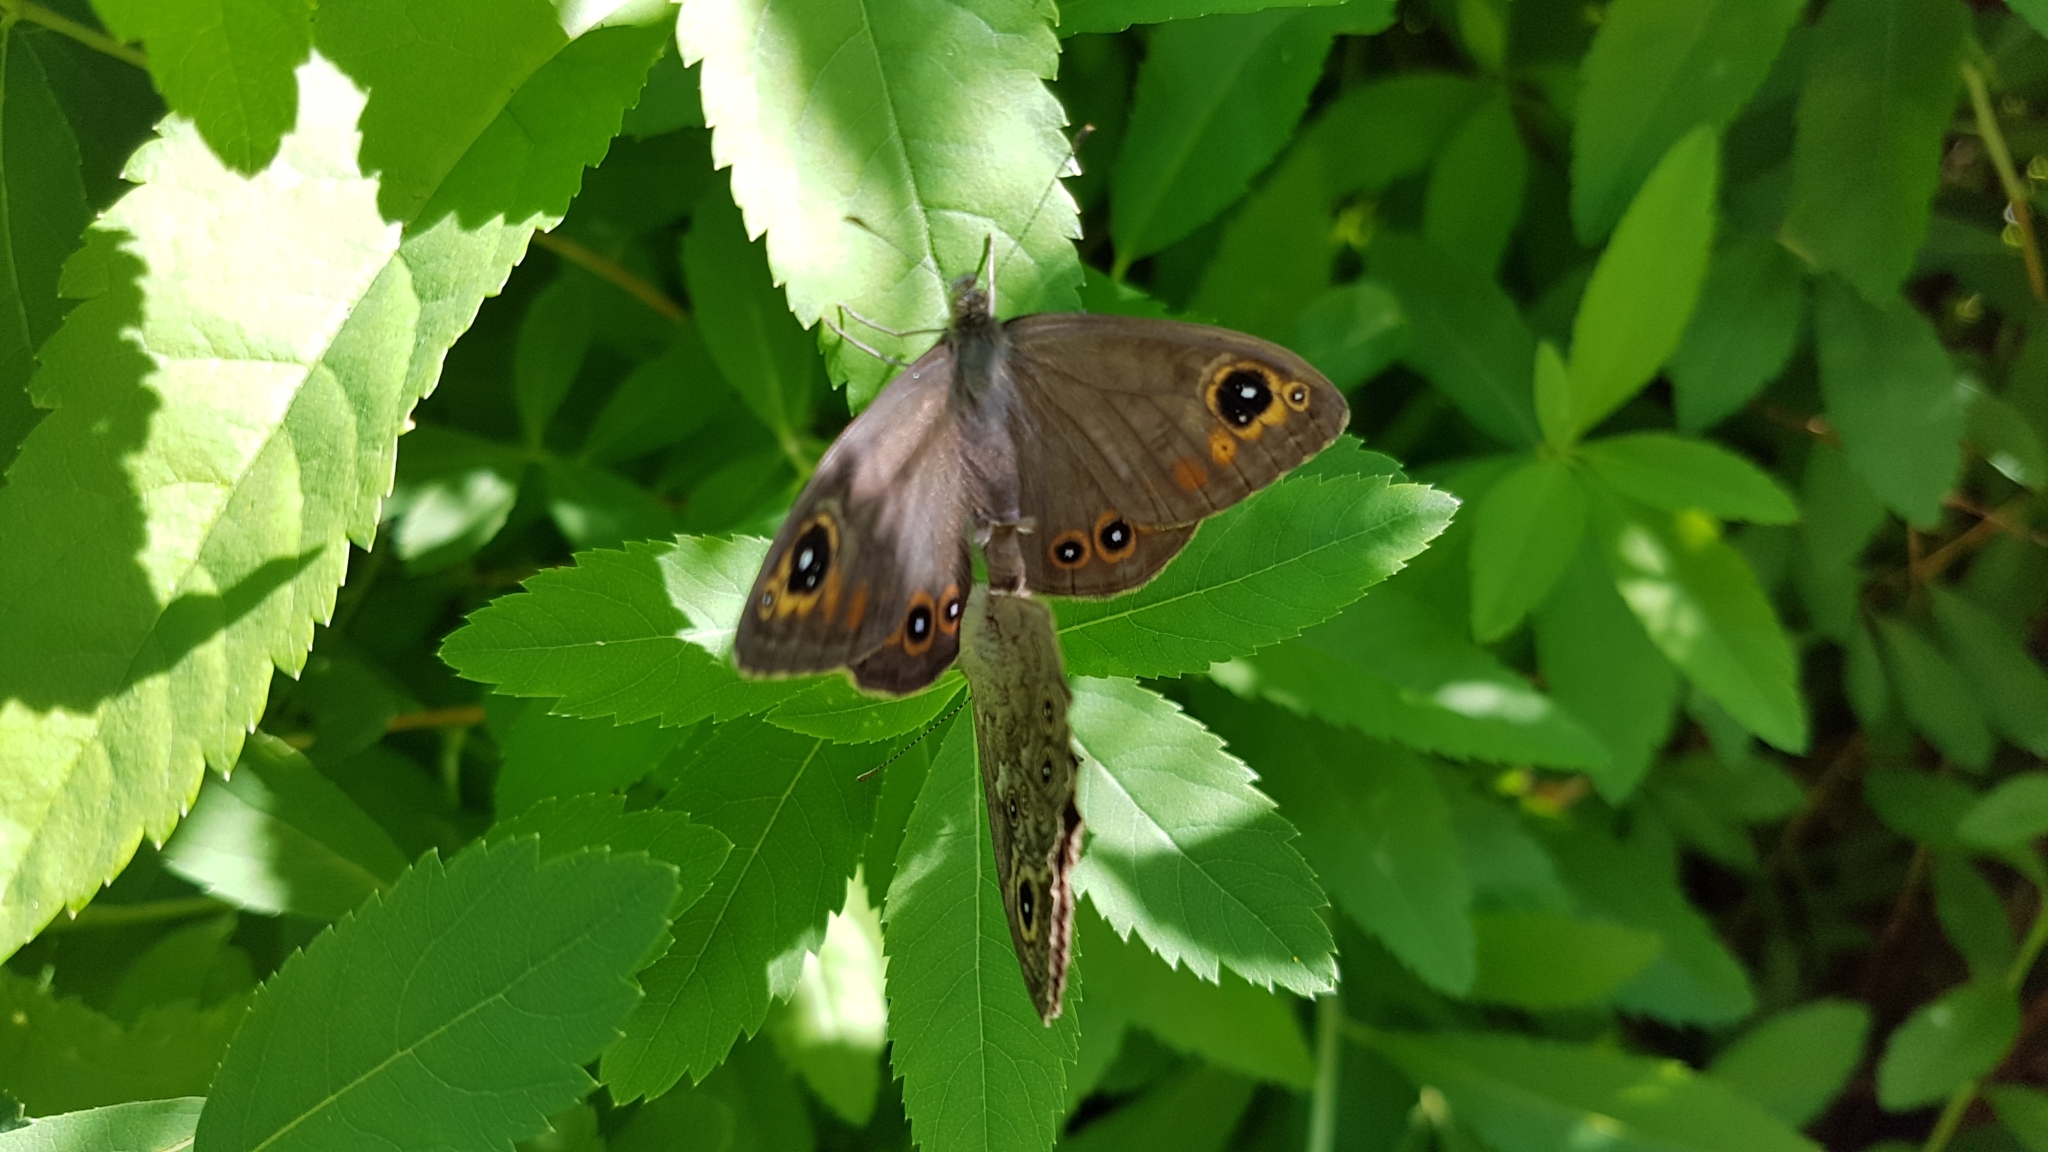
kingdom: Animalia
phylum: Arthropoda
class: Insecta
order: Lepidoptera
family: Nymphalidae
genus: Pararge
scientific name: Pararge Lasiommata maera
